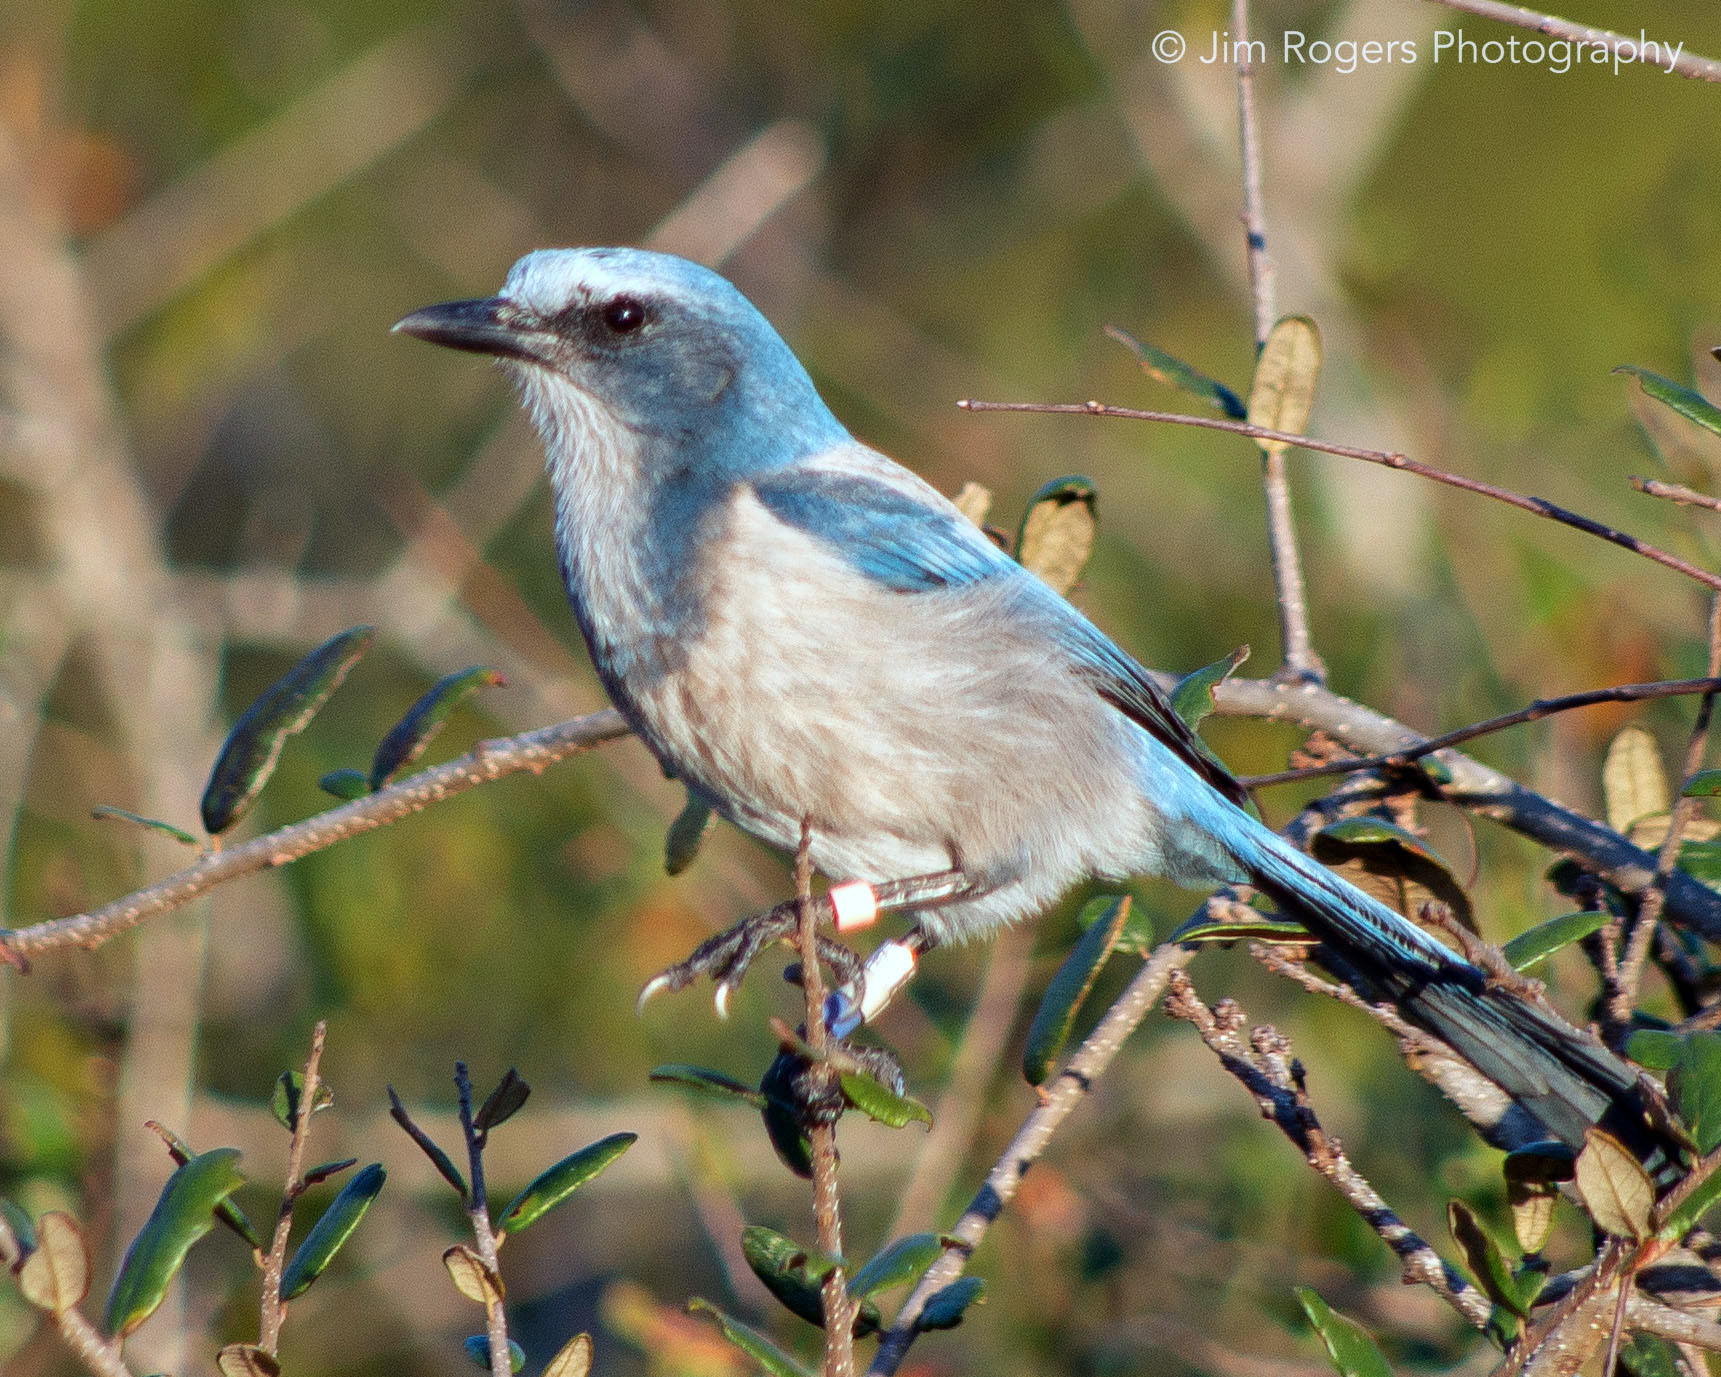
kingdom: Animalia
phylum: Chordata
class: Aves
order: Passeriformes
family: Corvidae
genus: Aphelocoma
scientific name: Aphelocoma coerulescens
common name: Florida scrub jay
